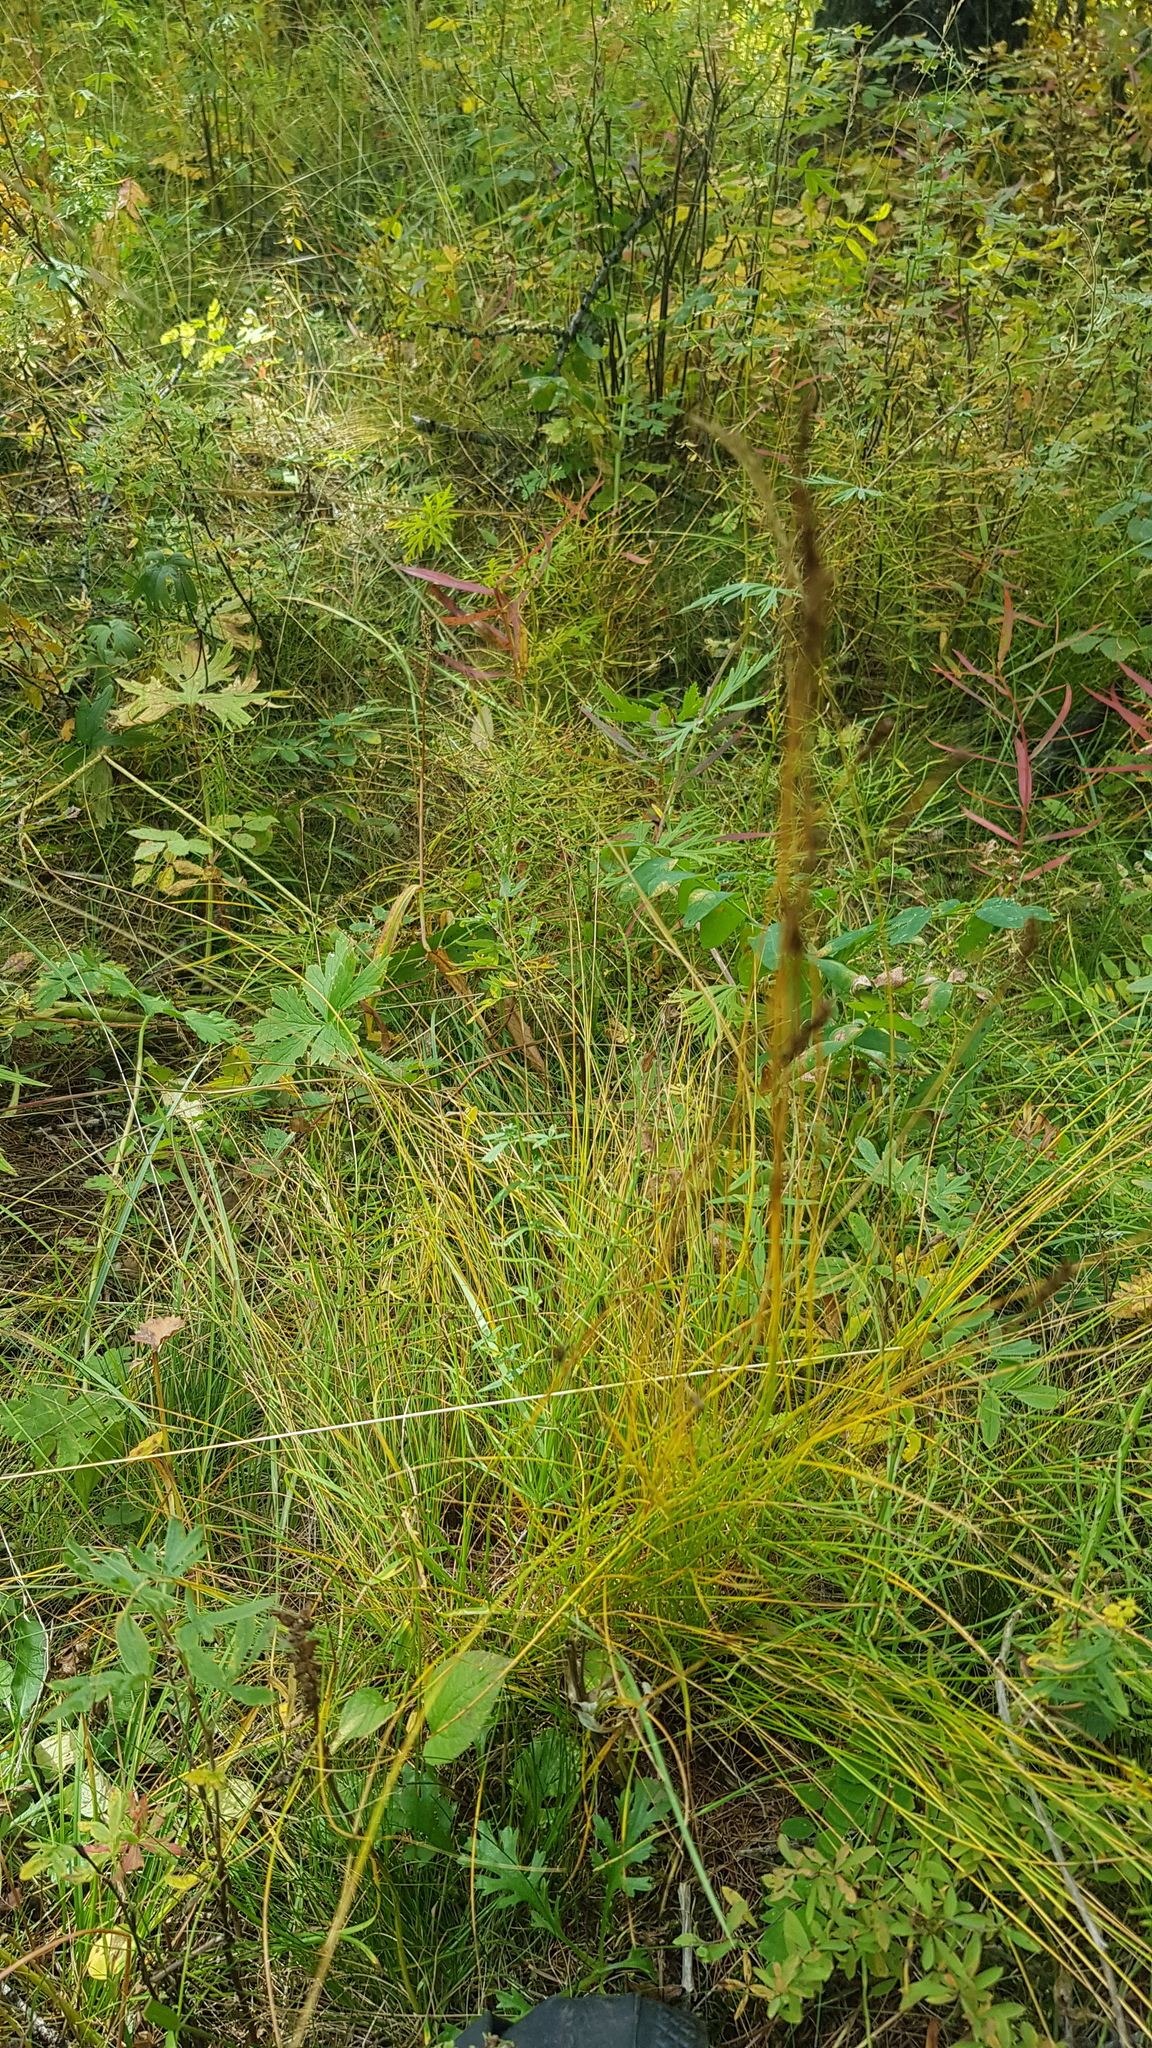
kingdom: Plantae
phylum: Tracheophyta
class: Polypodiopsida
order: Equisetales
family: Equisetaceae
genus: Equisetum
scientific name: Equisetum pratense
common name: Meadow horsetail
